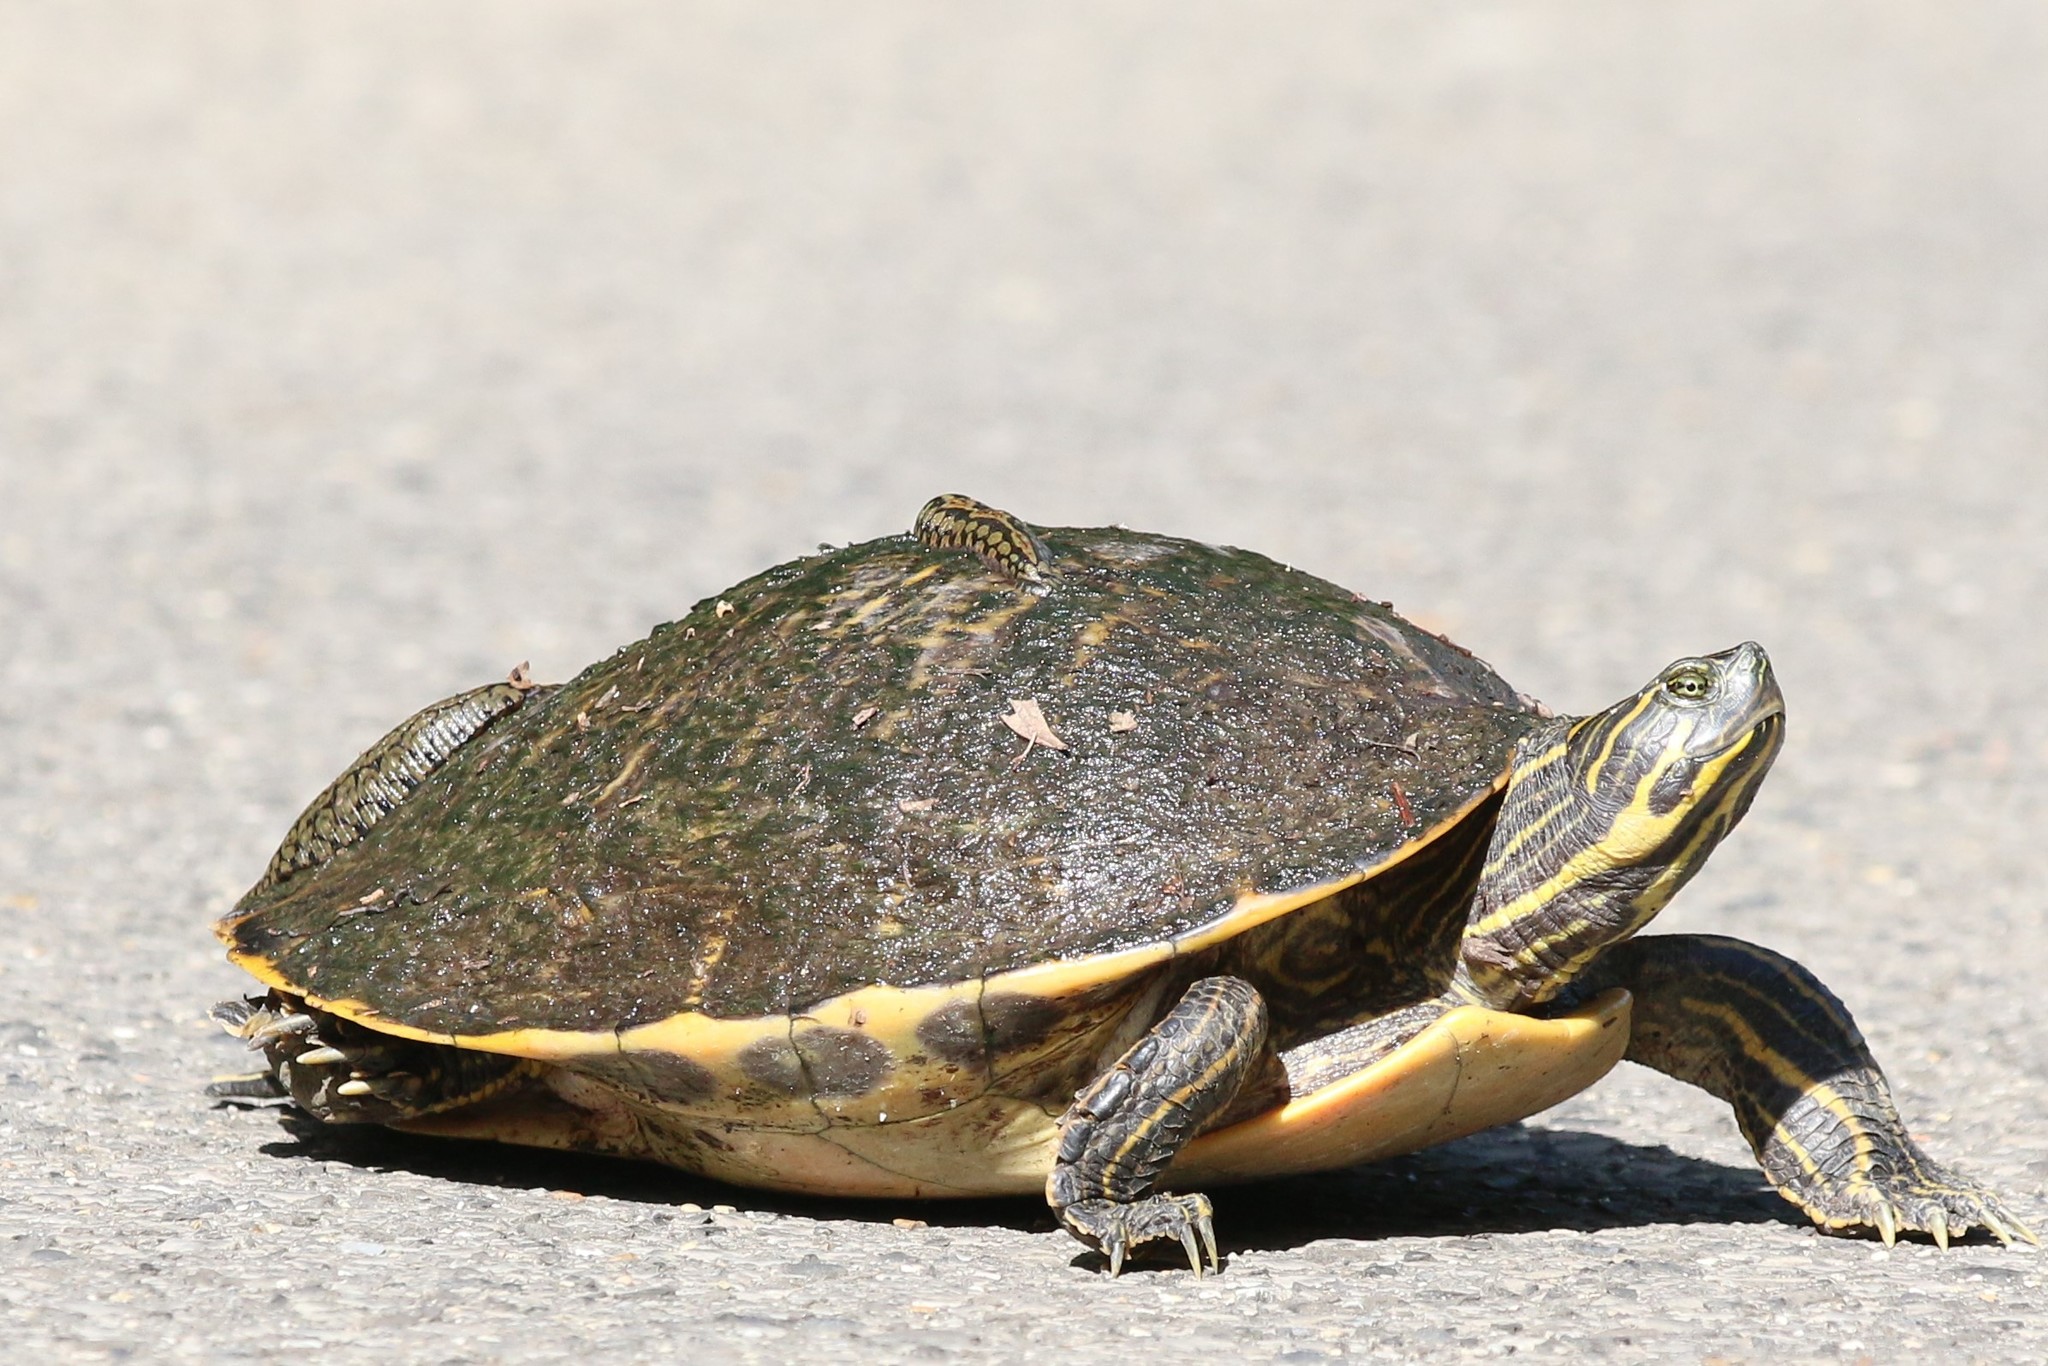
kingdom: Animalia
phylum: Chordata
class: Testudines
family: Emydidae
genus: Pseudemys
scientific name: Pseudemys concinna
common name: Eastern river cooter
